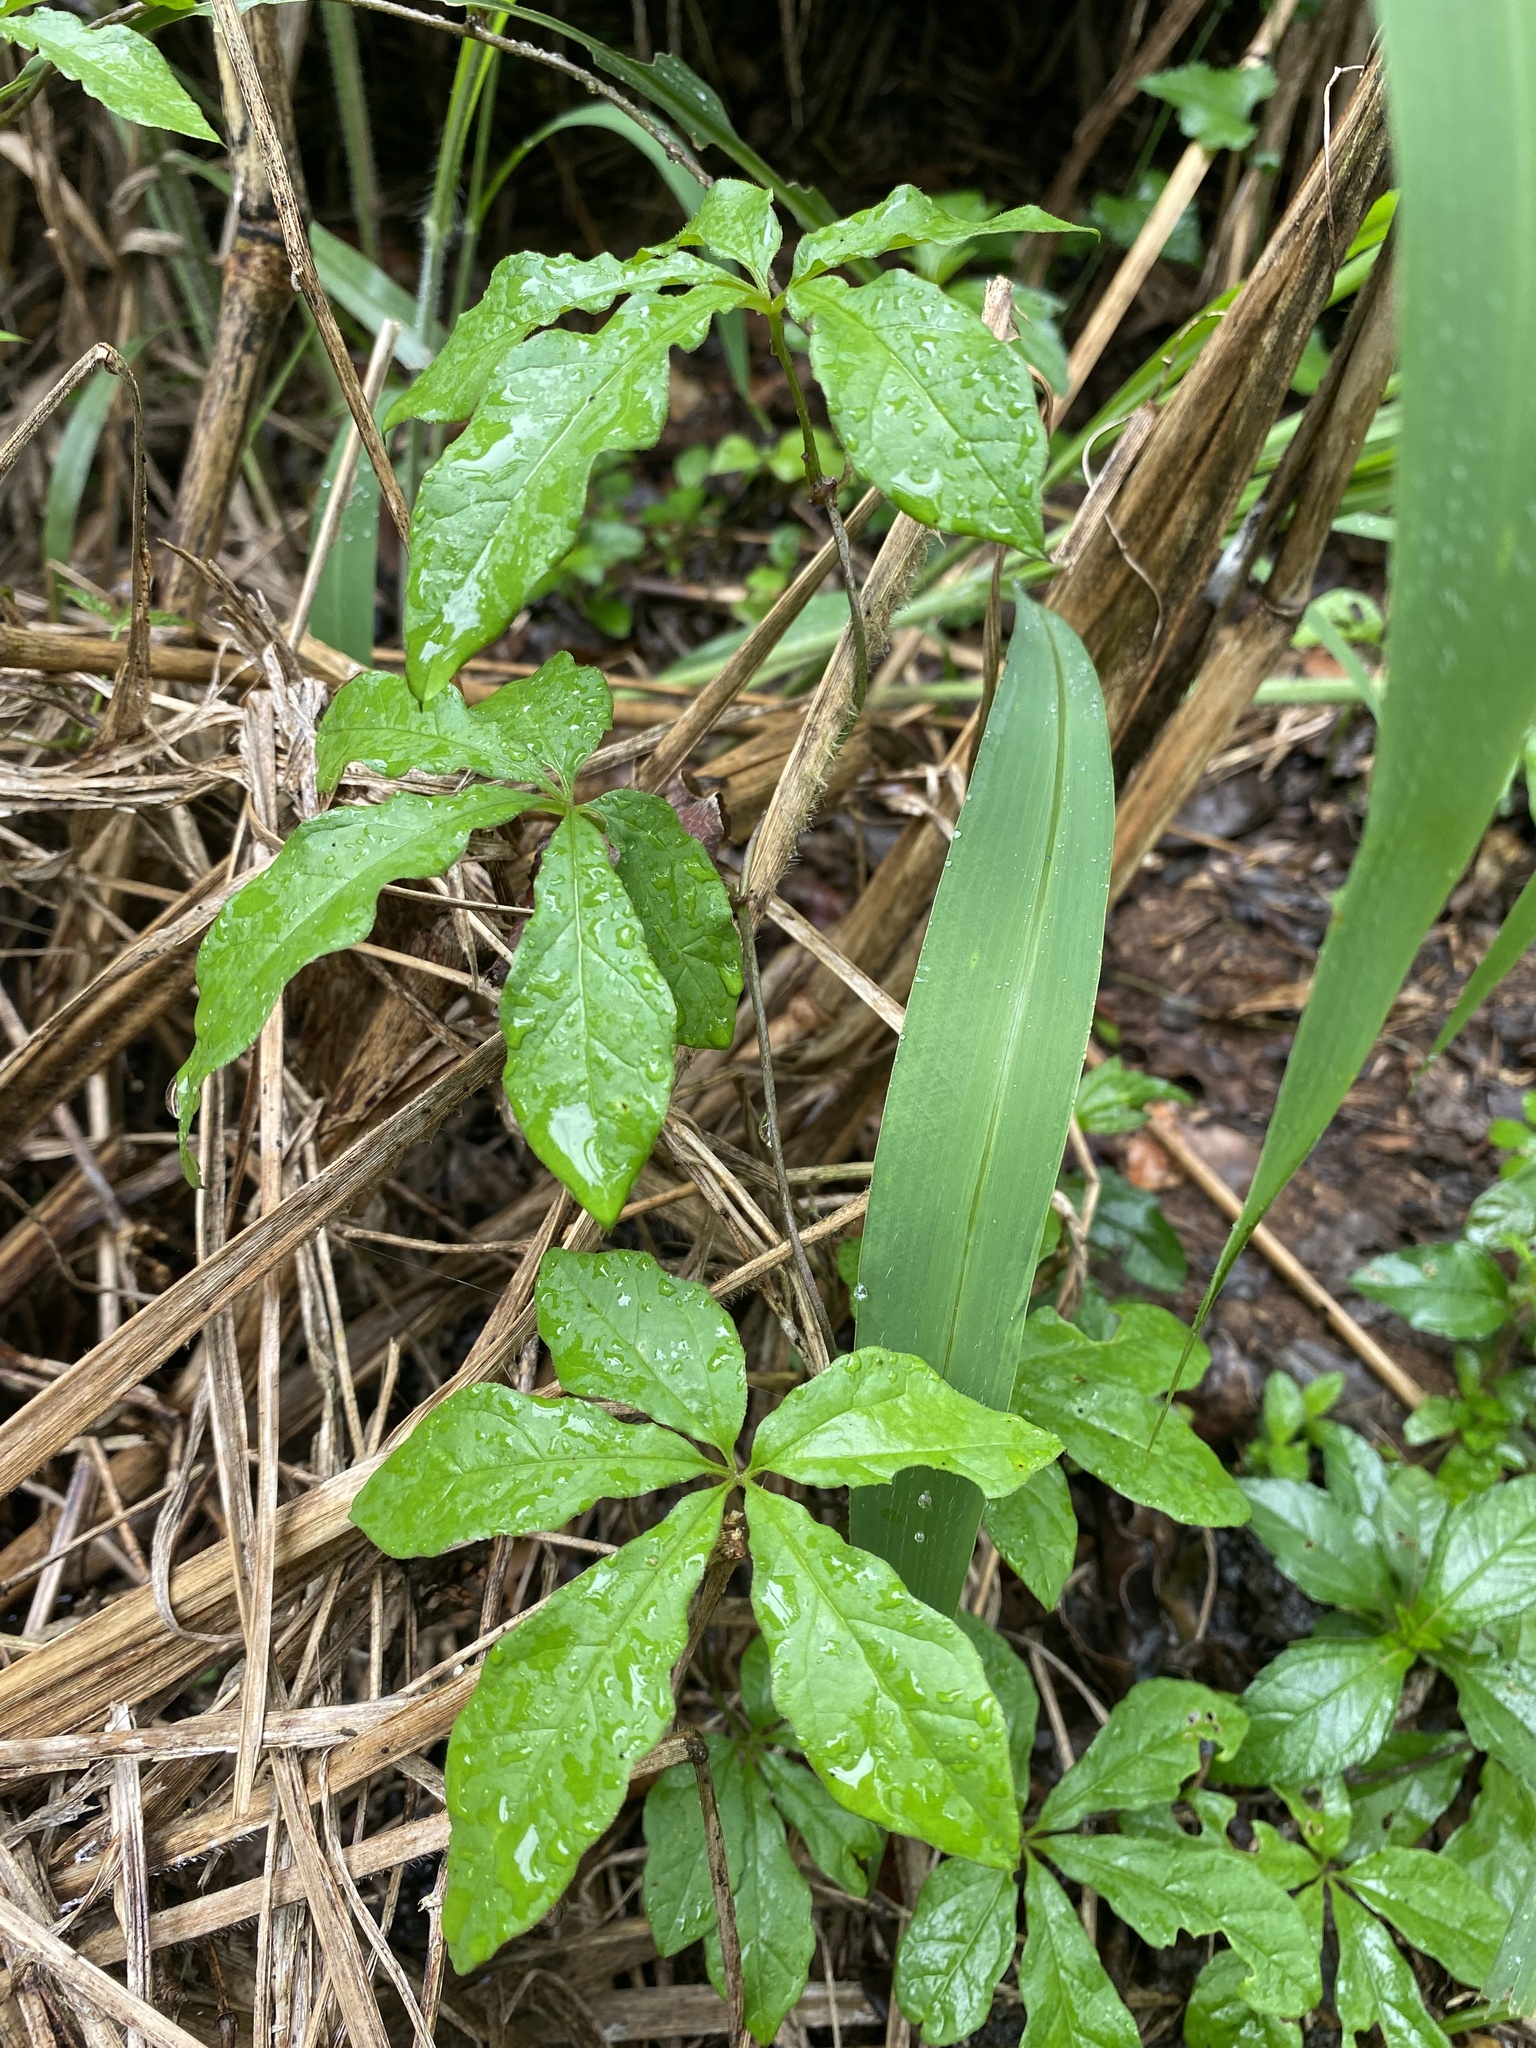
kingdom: Plantae
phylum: Tracheophyta
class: Magnoliopsida
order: Vitales
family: Vitaceae
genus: Cyphostemma
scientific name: Cyphostemma hypoleucum
